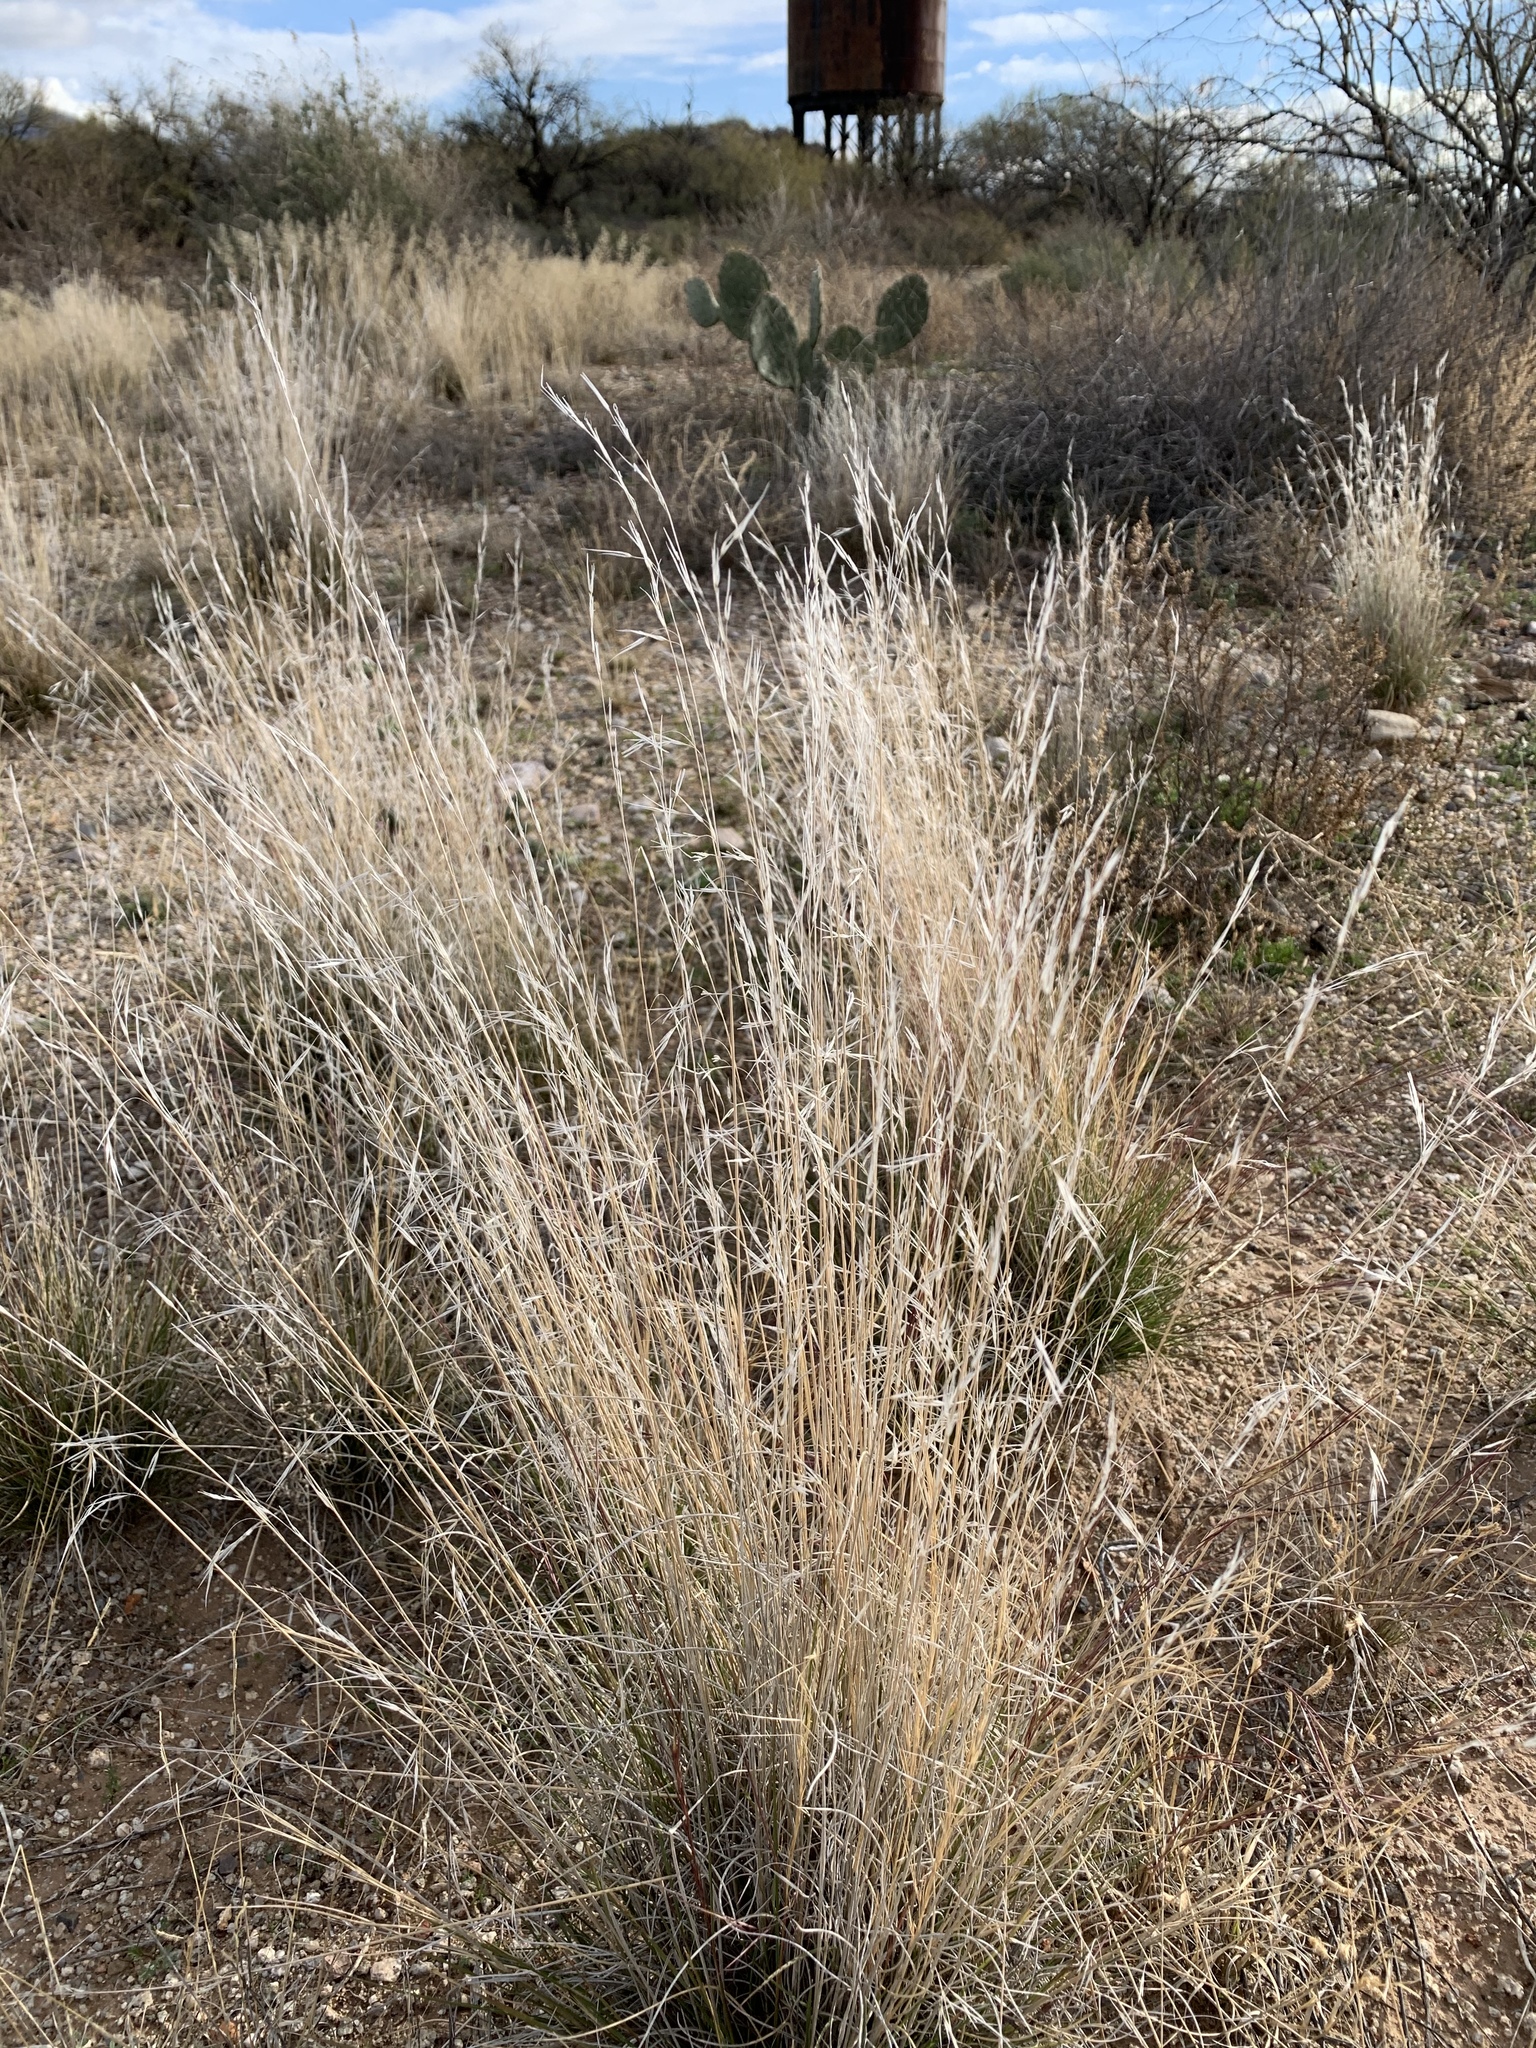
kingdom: Plantae
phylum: Tracheophyta
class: Liliopsida
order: Poales
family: Poaceae
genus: Aristida
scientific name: Aristida purpurea
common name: Purple threeawn
